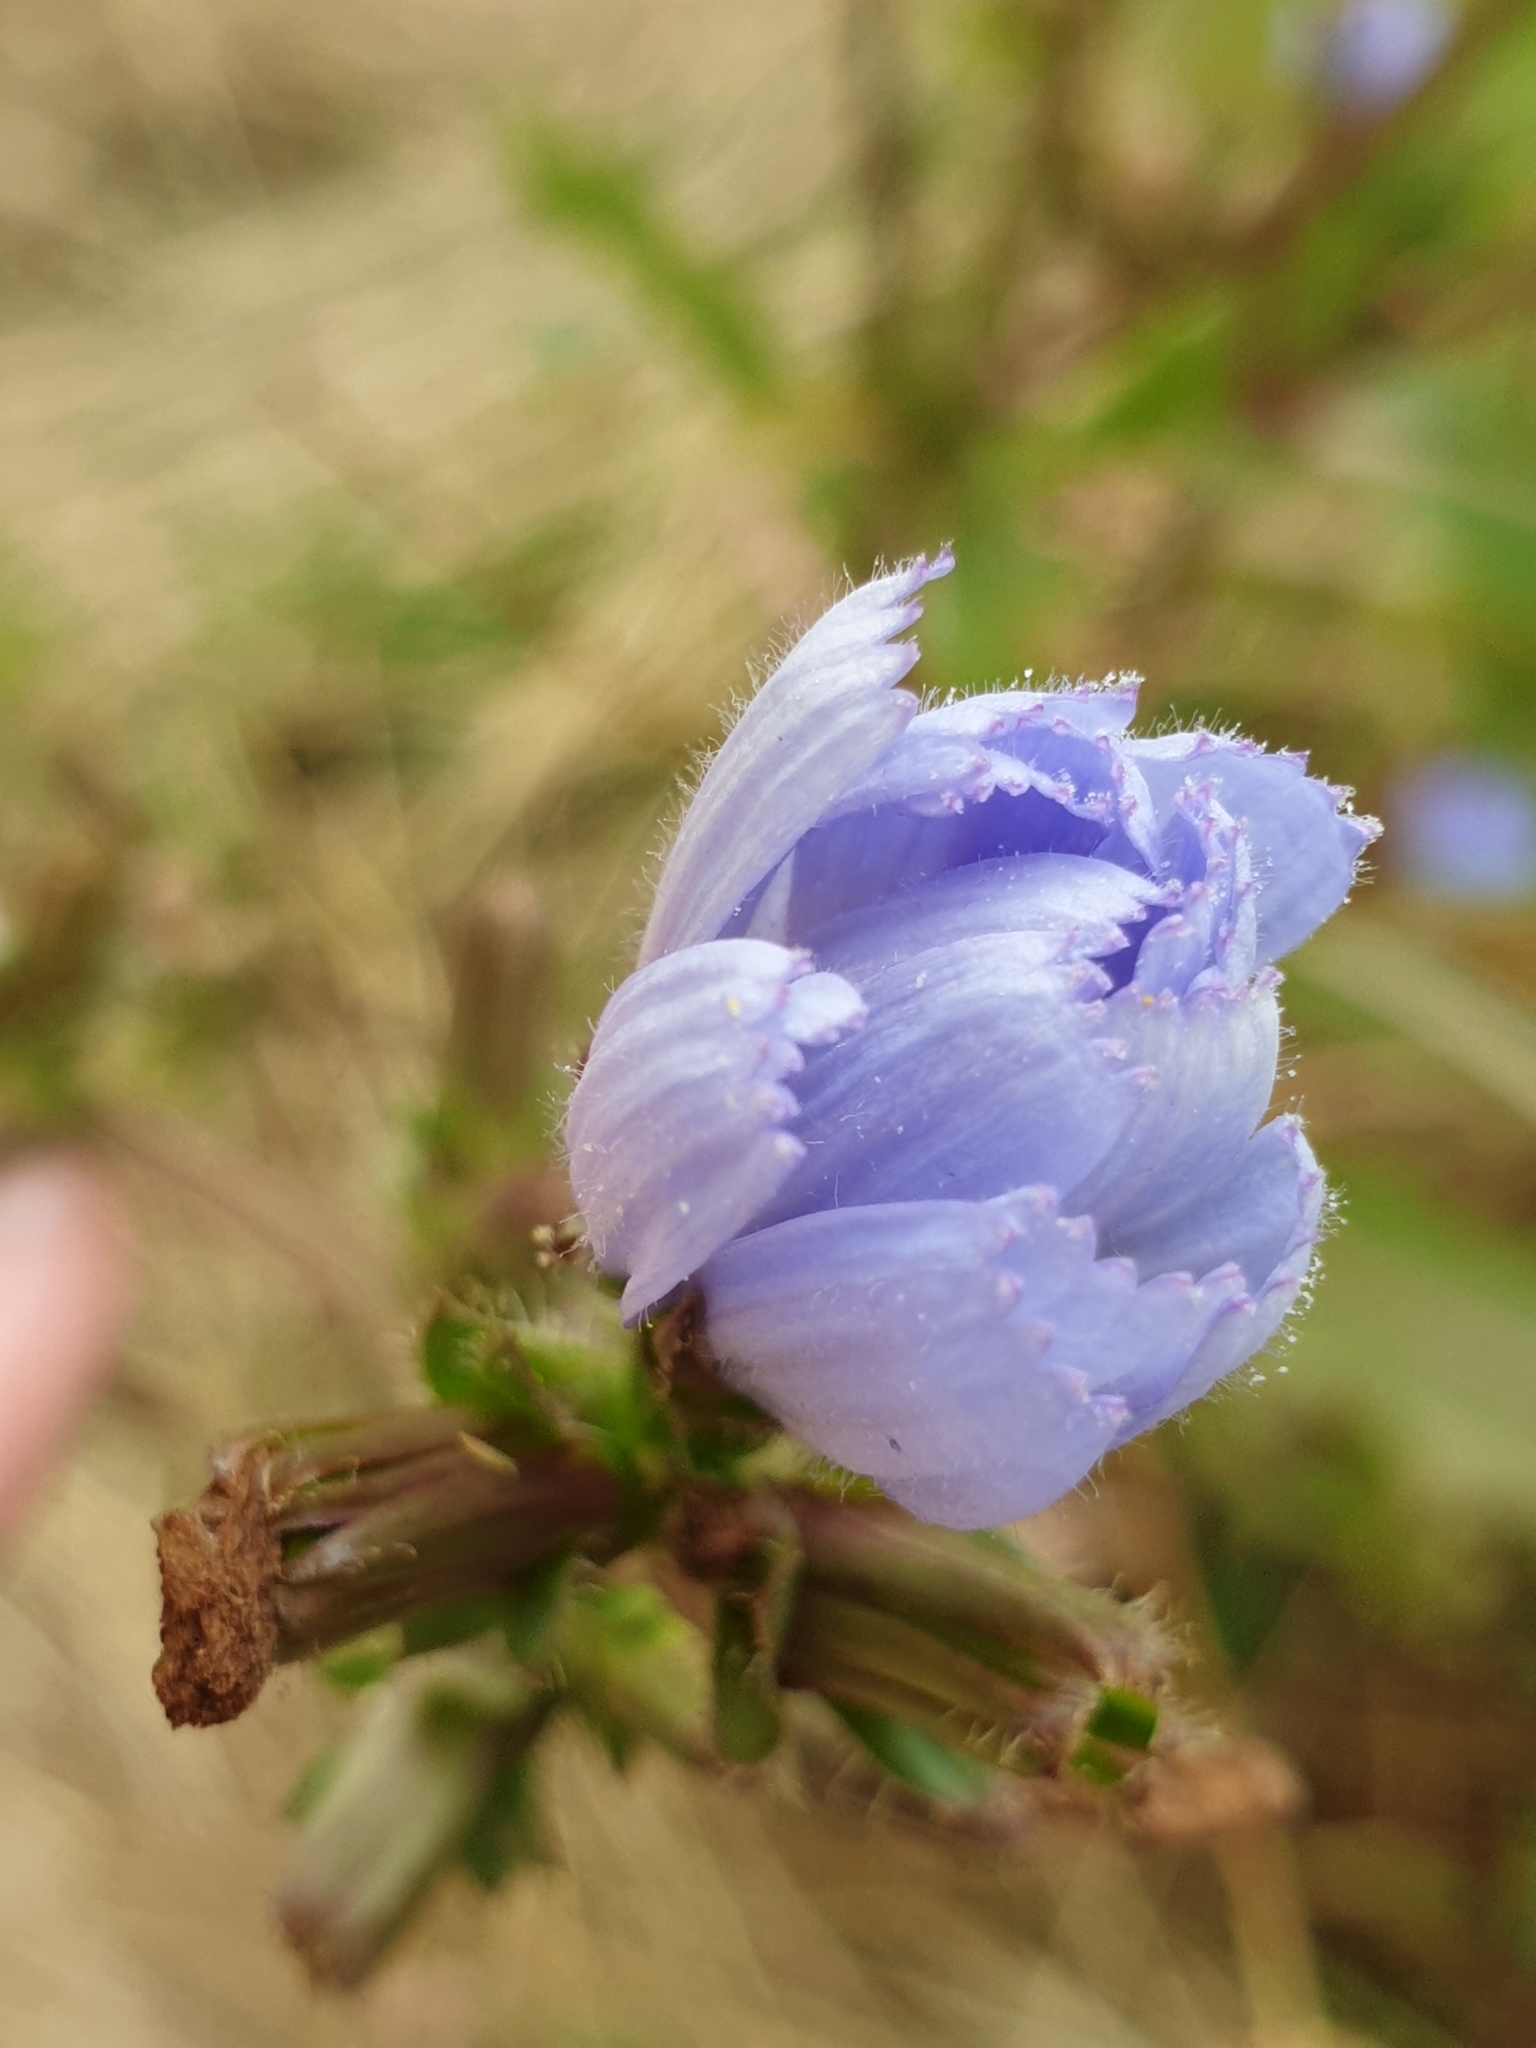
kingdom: Plantae
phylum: Tracheophyta
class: Magnoliopsida
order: Asterales
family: Asteraceae
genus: Cichorium
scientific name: Cichorium intybus
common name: Chicory
